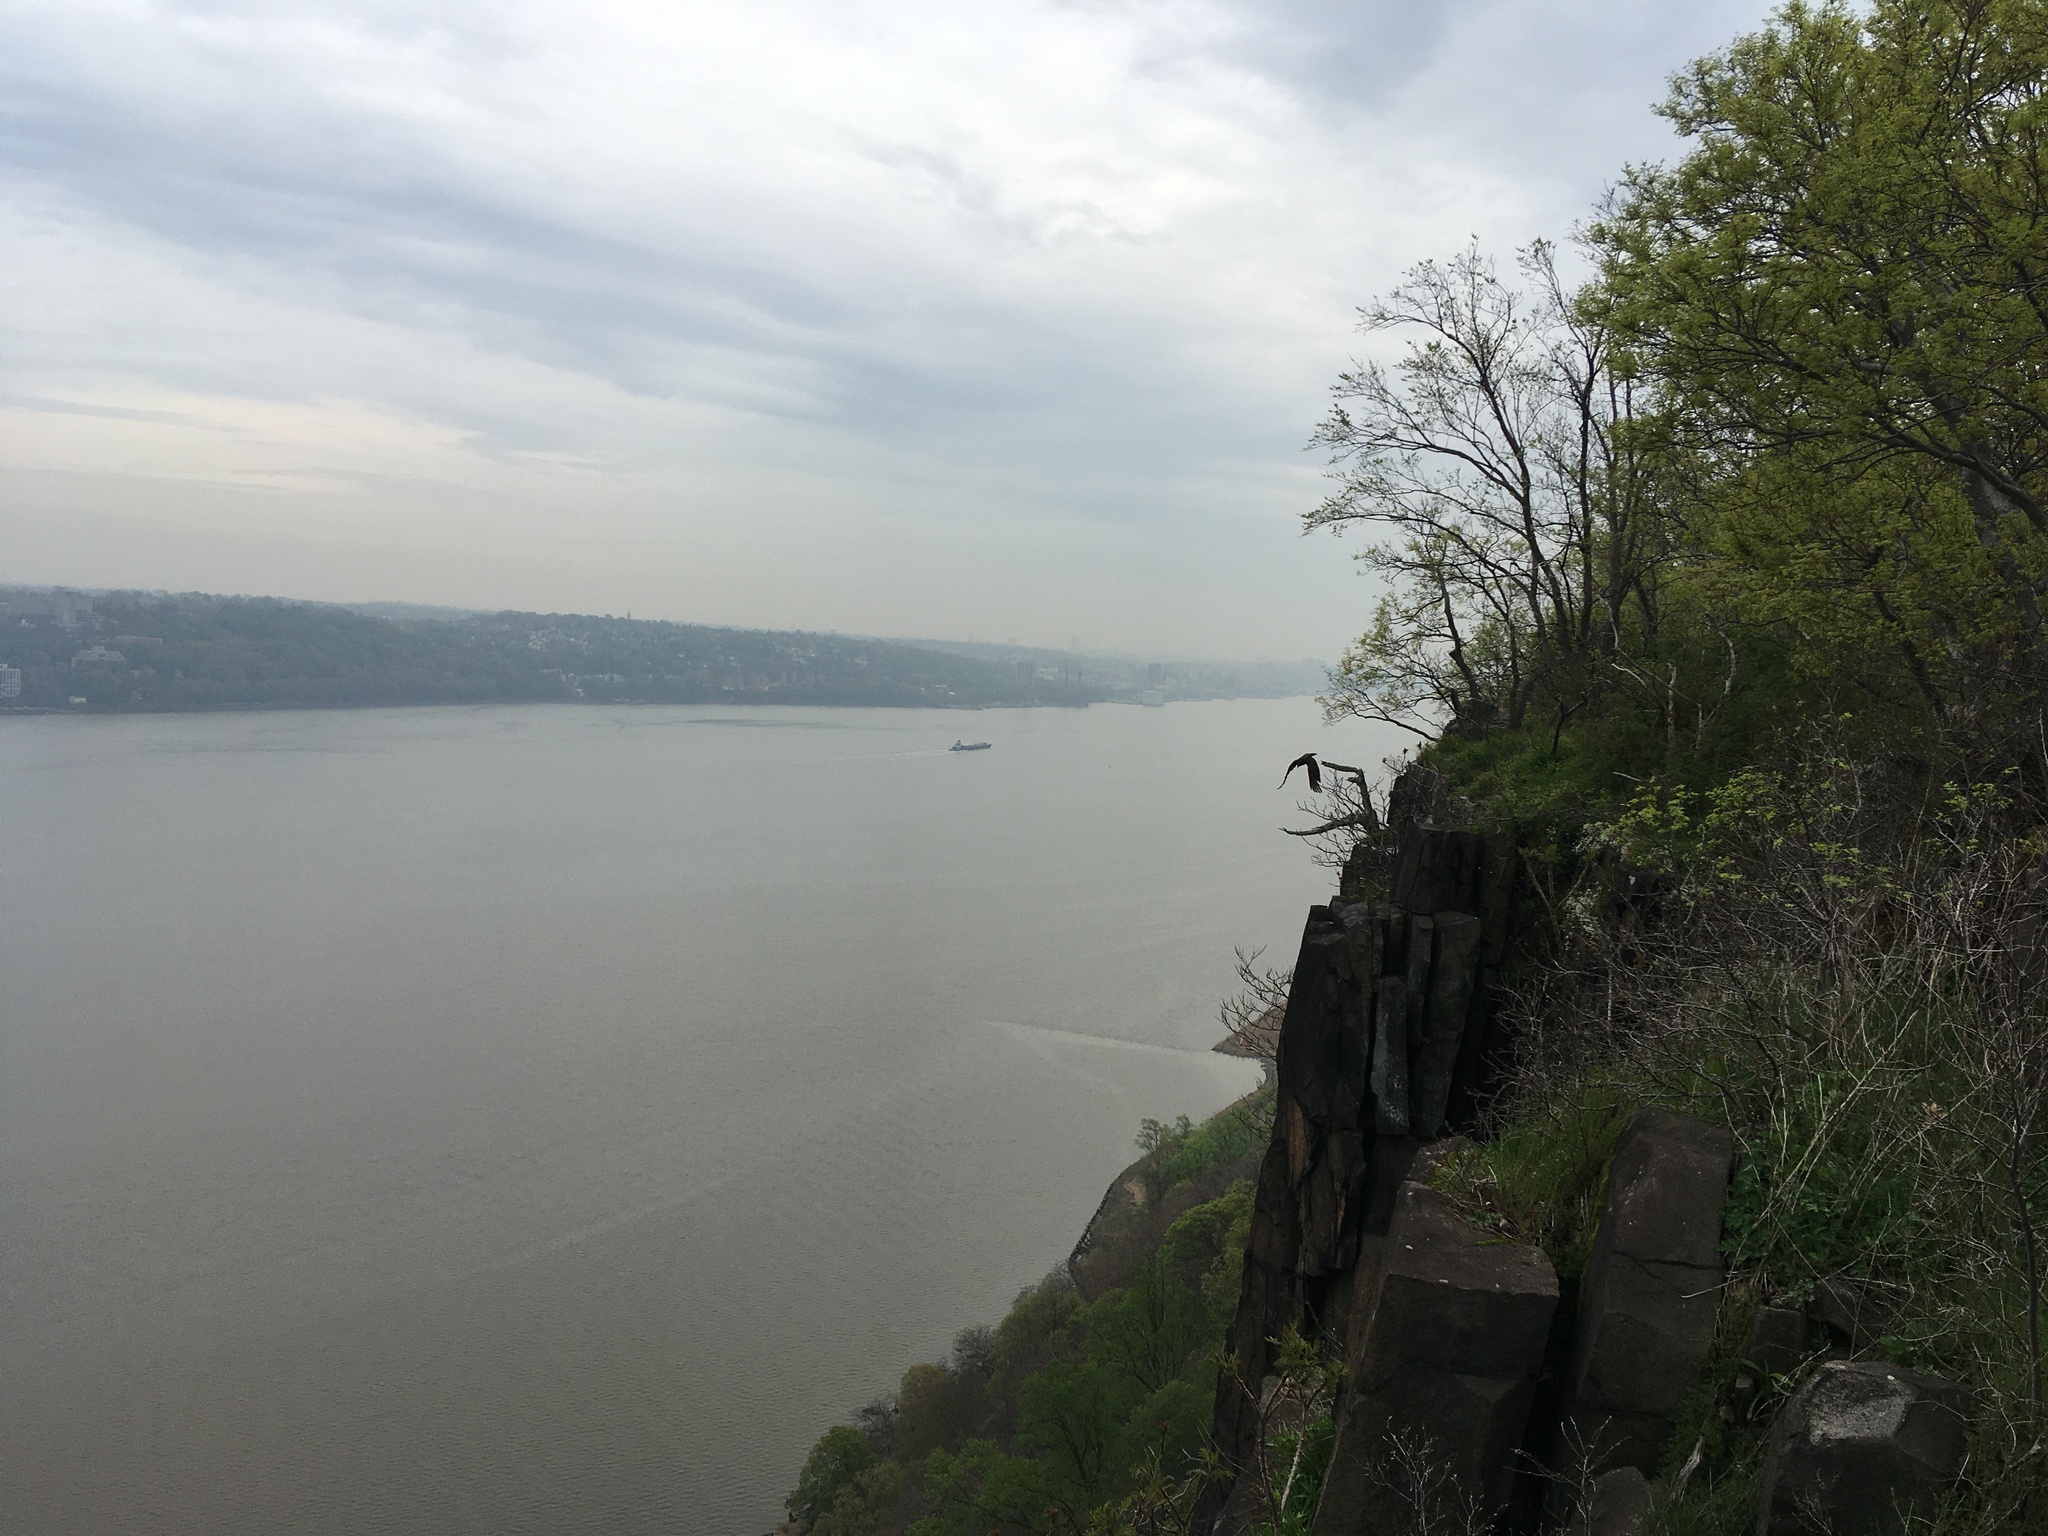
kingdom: Animalia
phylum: Chordata
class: Aves
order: Accipitriformes
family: Cathartidae
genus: Cathartes
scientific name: Cathartes aura
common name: Turkey vulture
